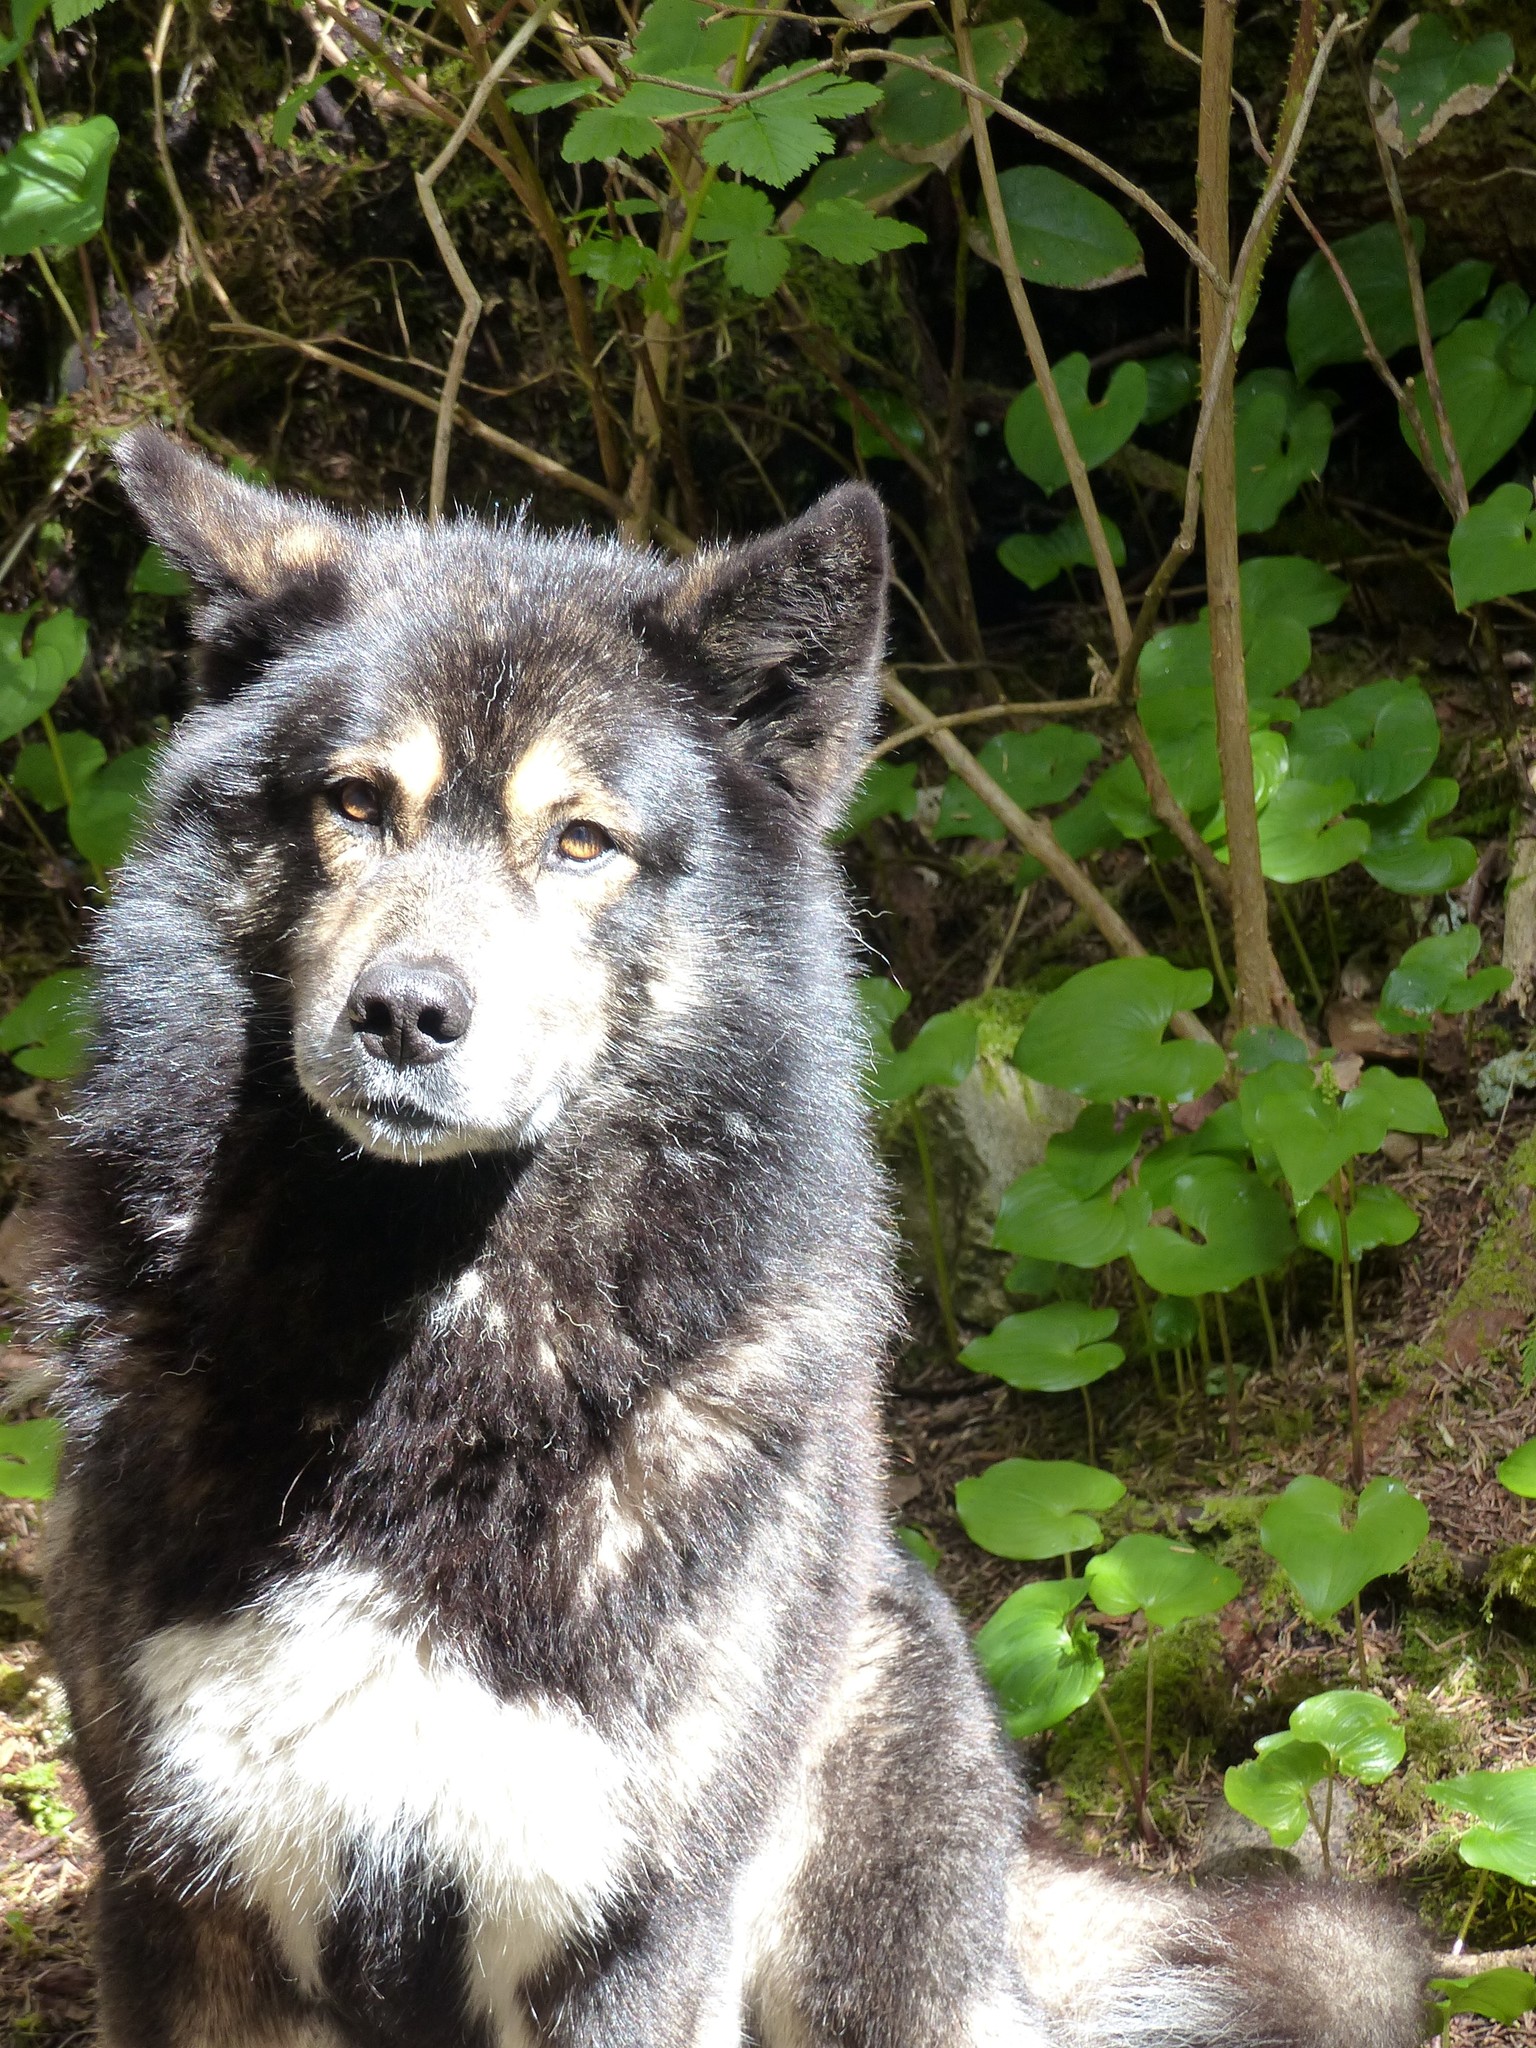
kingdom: Animalia
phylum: Chordata
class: Mammalia
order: Carnivora
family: Canidae
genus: Canis
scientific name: Canis lupus
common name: Gray wolf
